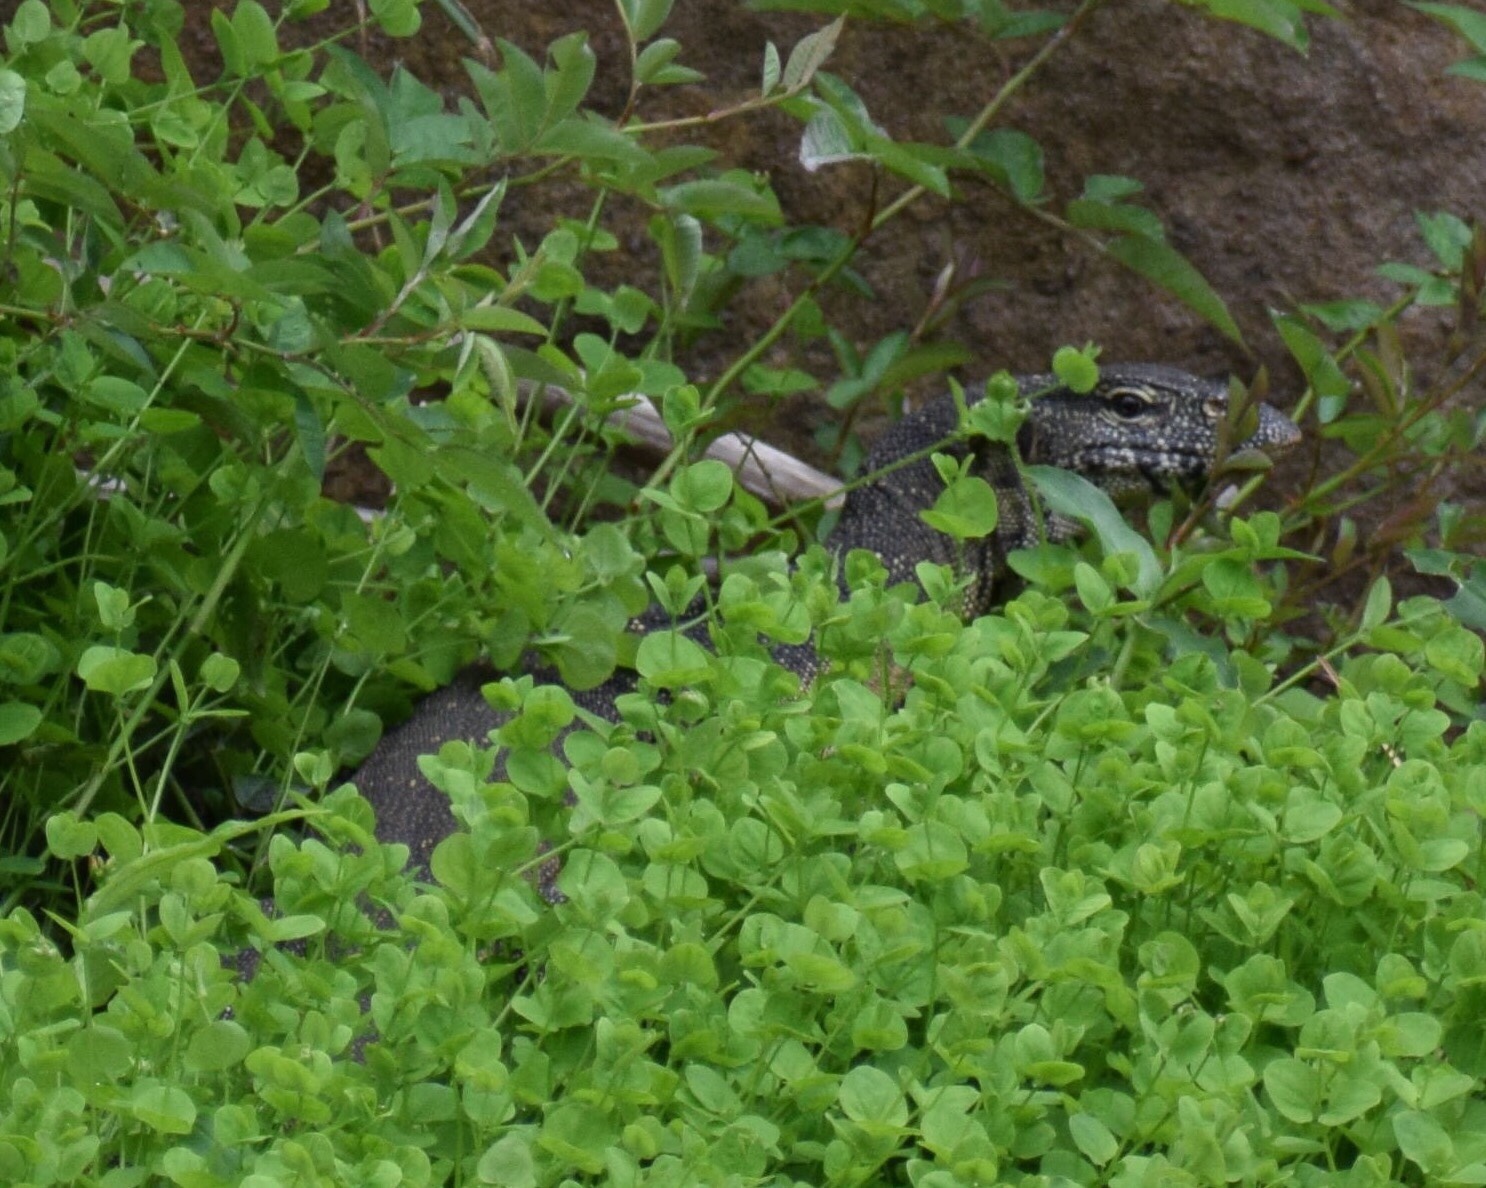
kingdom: Animalia
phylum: Chordata
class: Squamata
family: Varanidae
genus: Varanus
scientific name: Varanus niloticus
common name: Nile monitor
